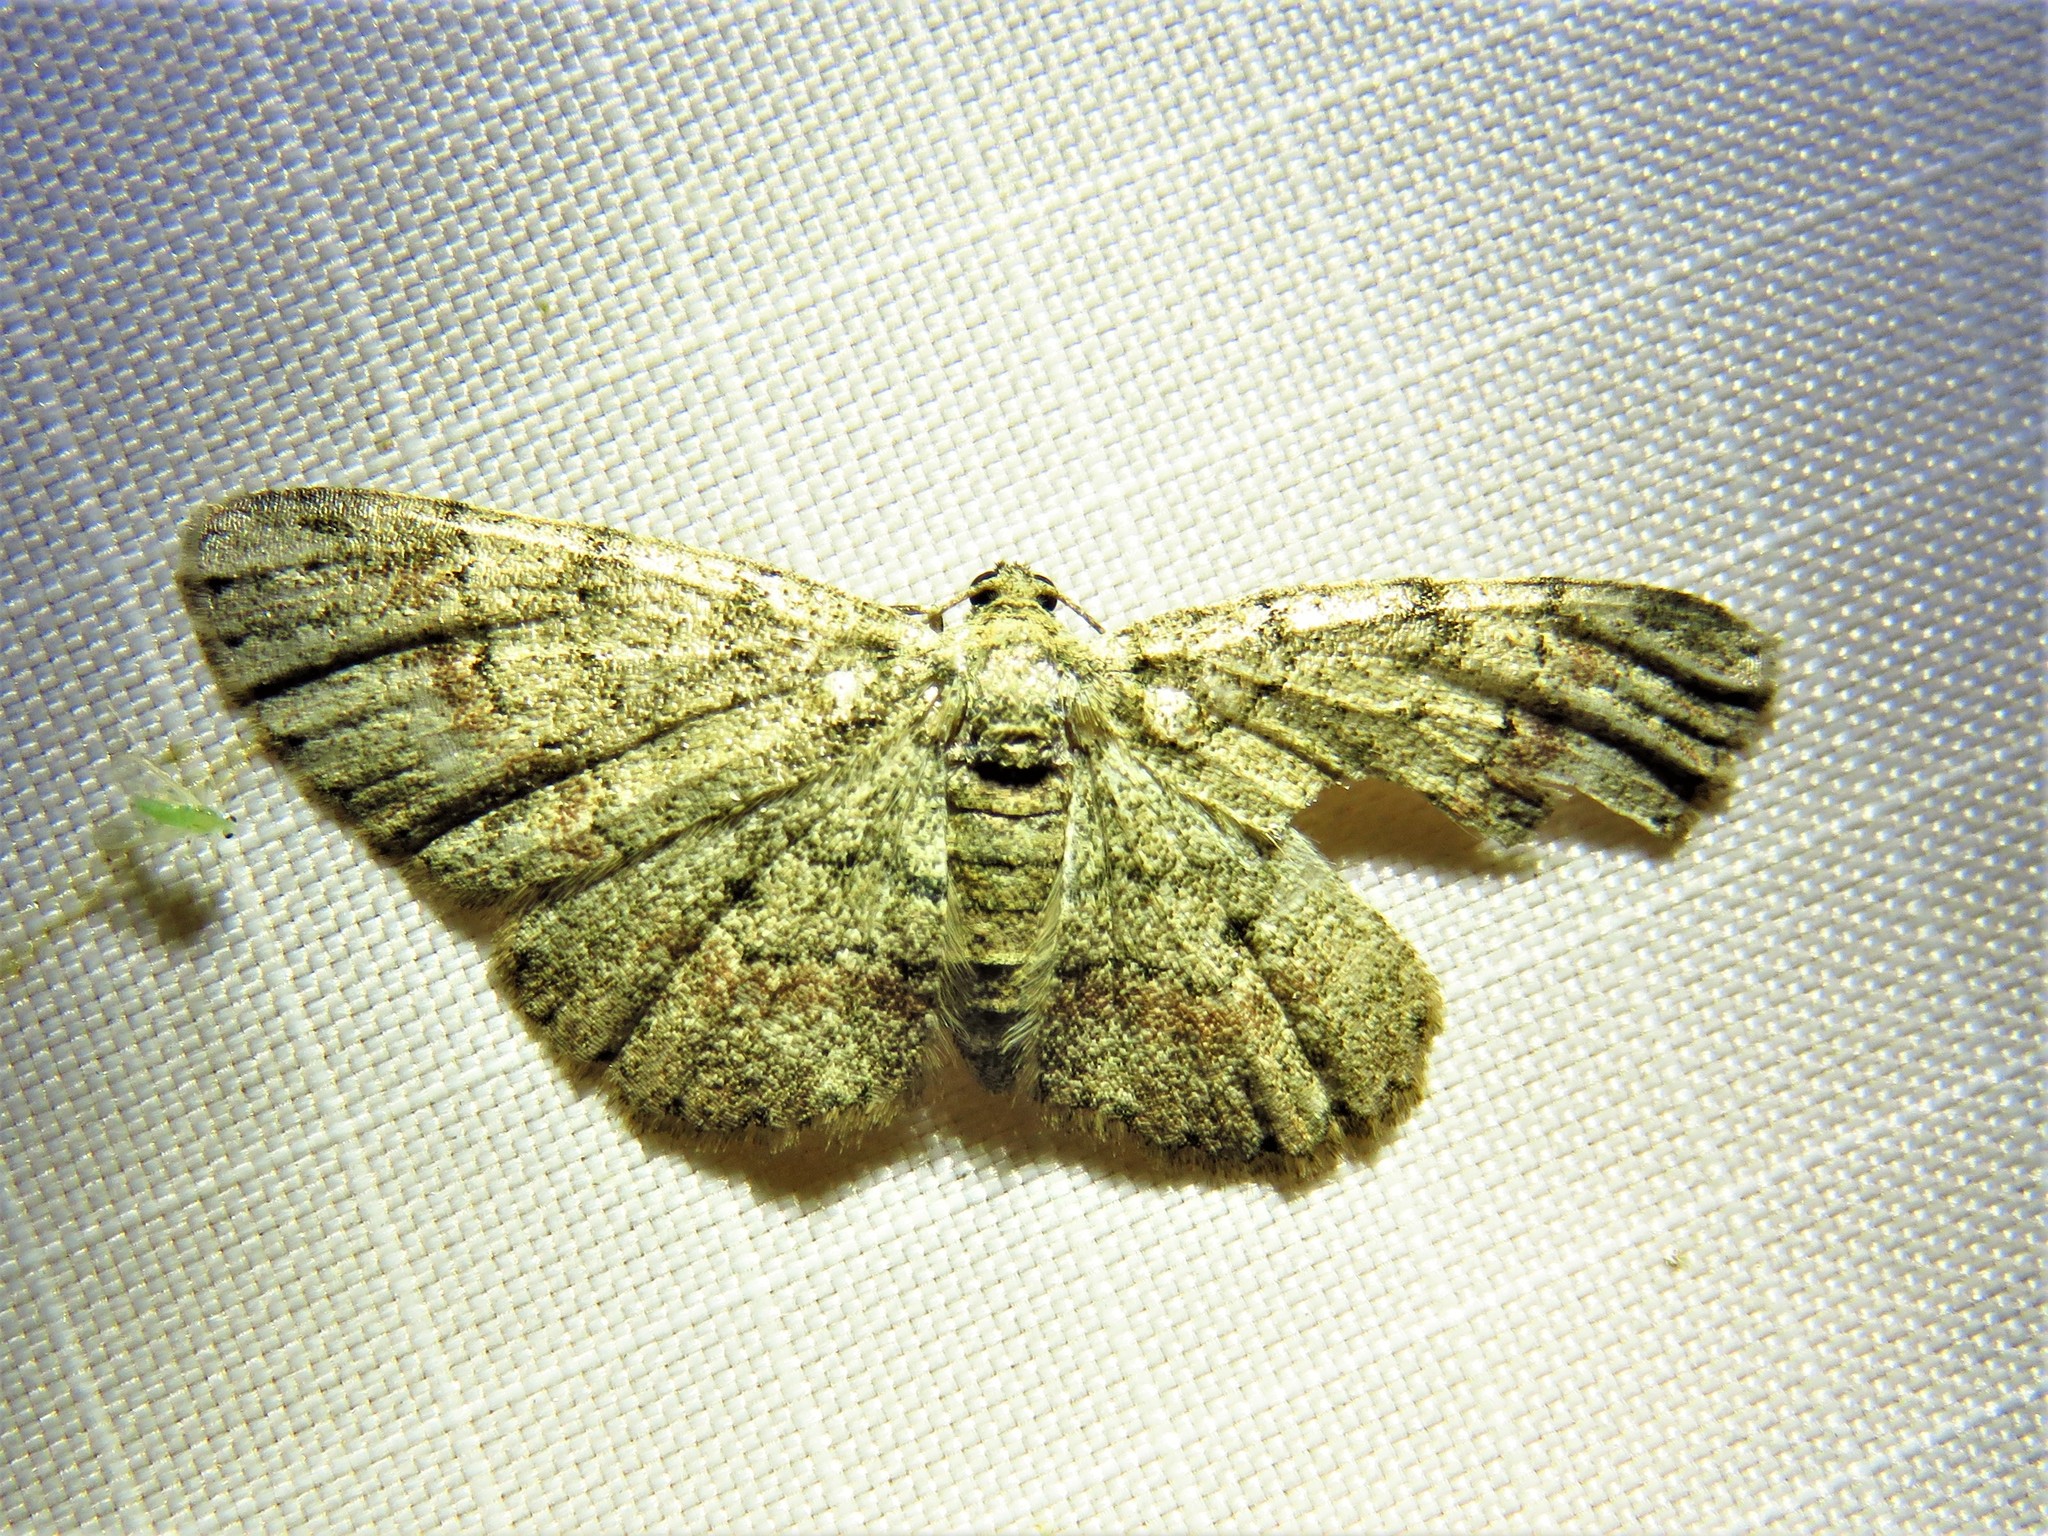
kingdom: Animalia
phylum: Arthropoda
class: Insecta
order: Lepidoptera
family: Geometridae
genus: Glenoides
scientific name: Glenoides texanaria
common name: Texas gray
